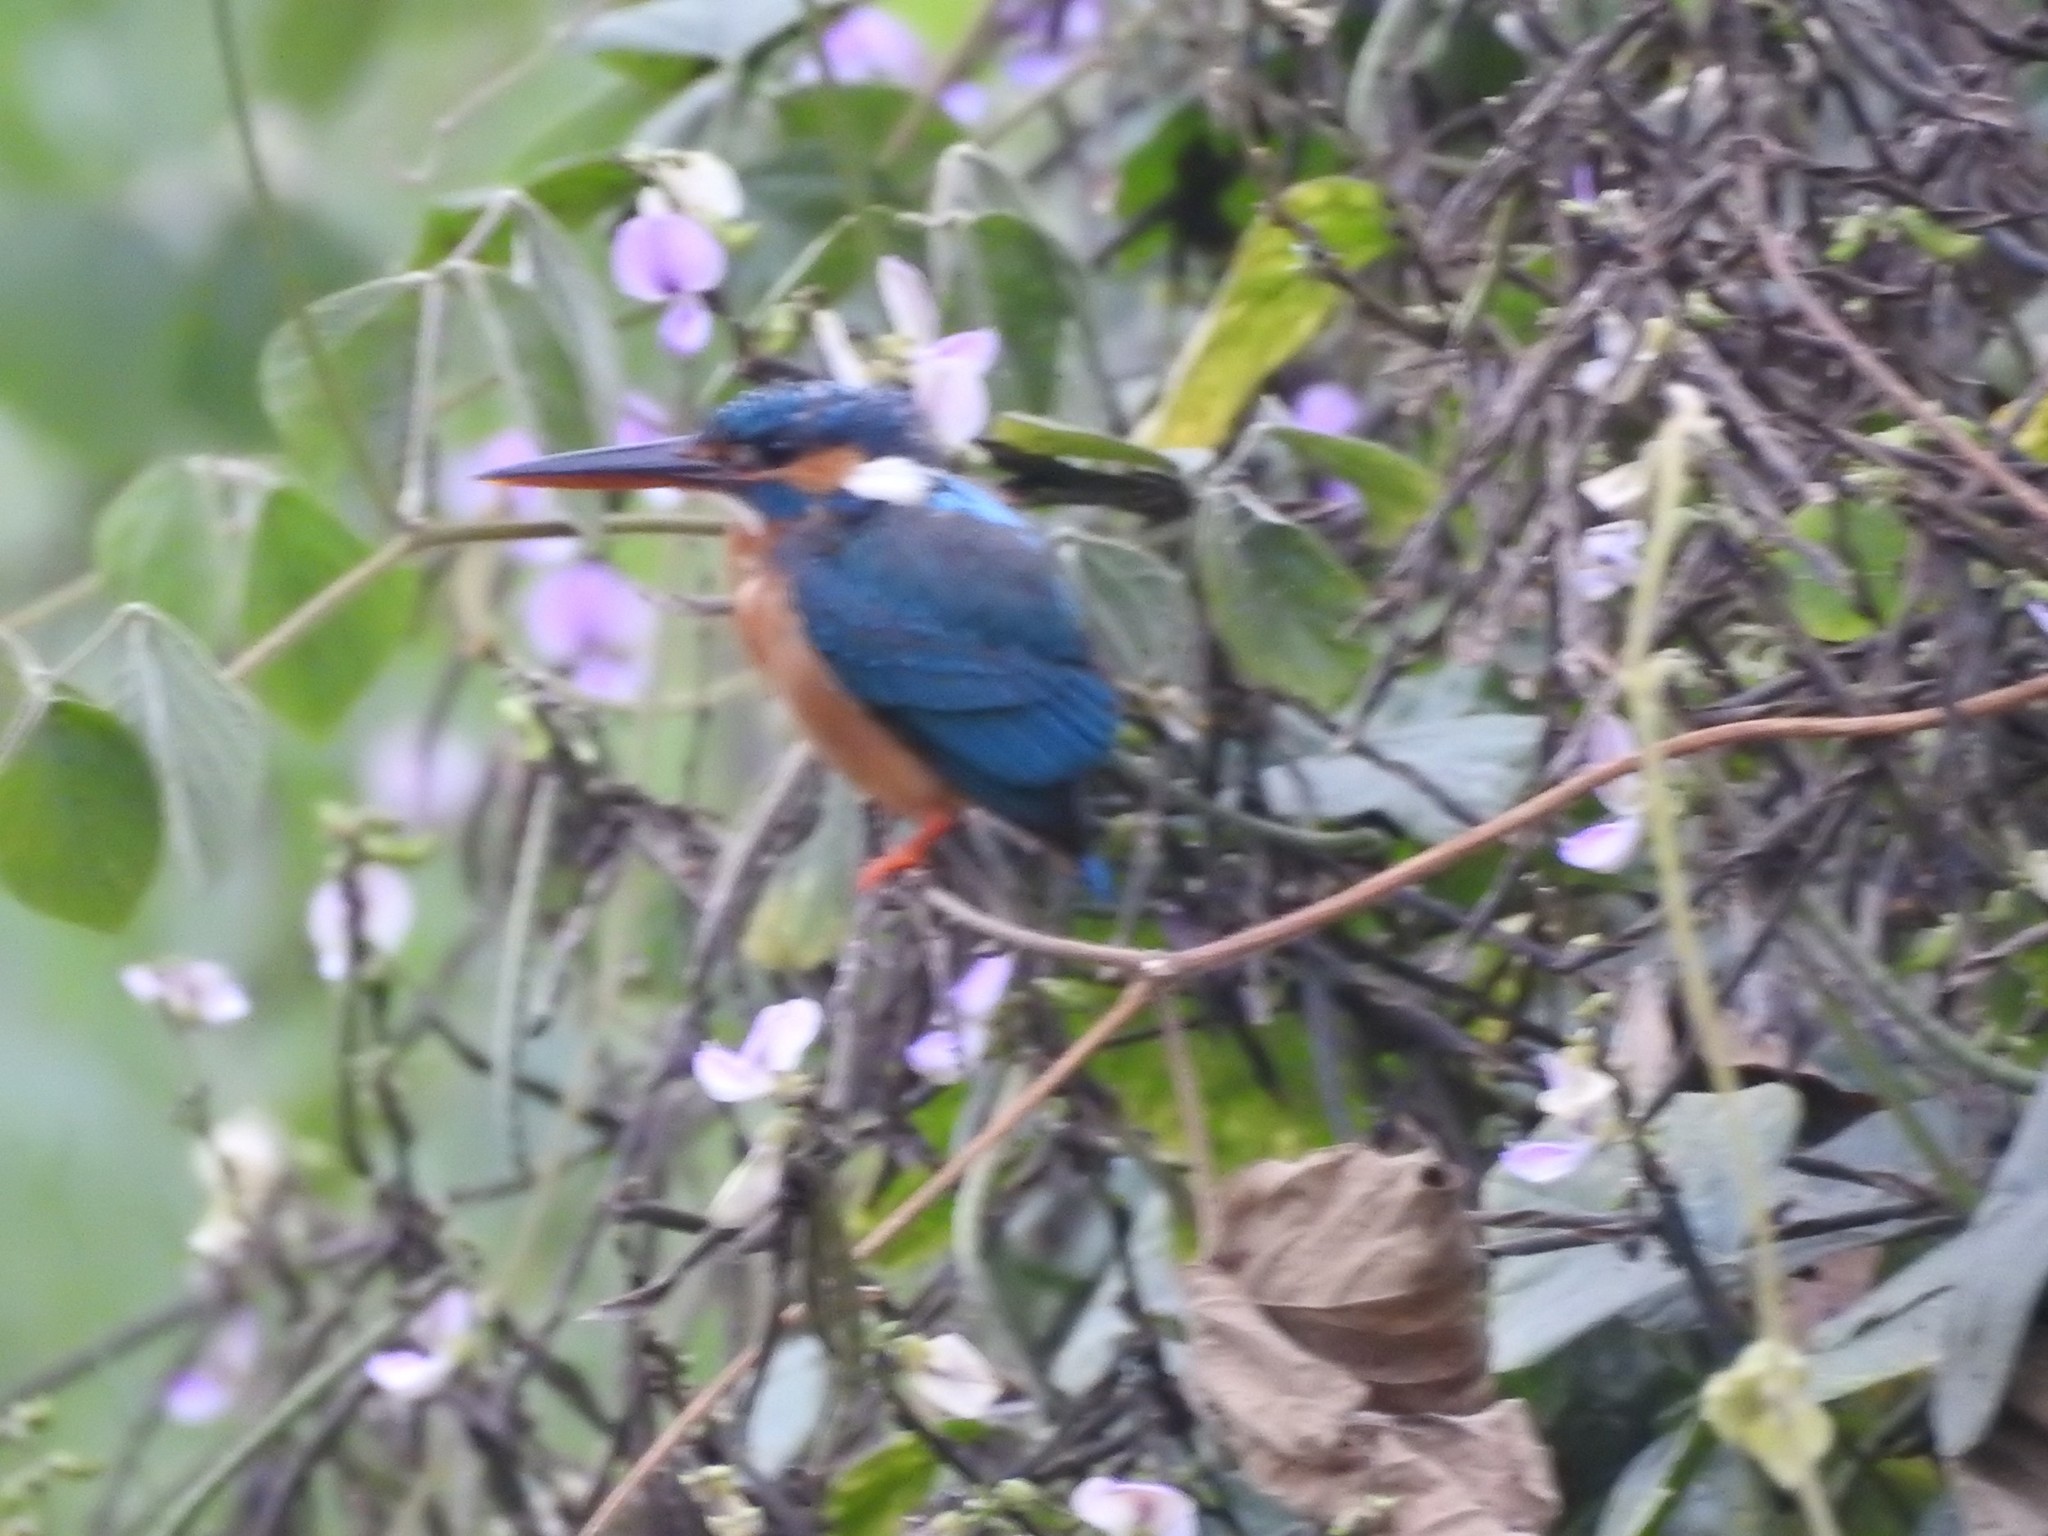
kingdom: Animalia
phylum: Chordata
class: Aves
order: Coraciiformes
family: Alcedinidae
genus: Alcedo
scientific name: Alcedo atthis
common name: Common kingfisher
